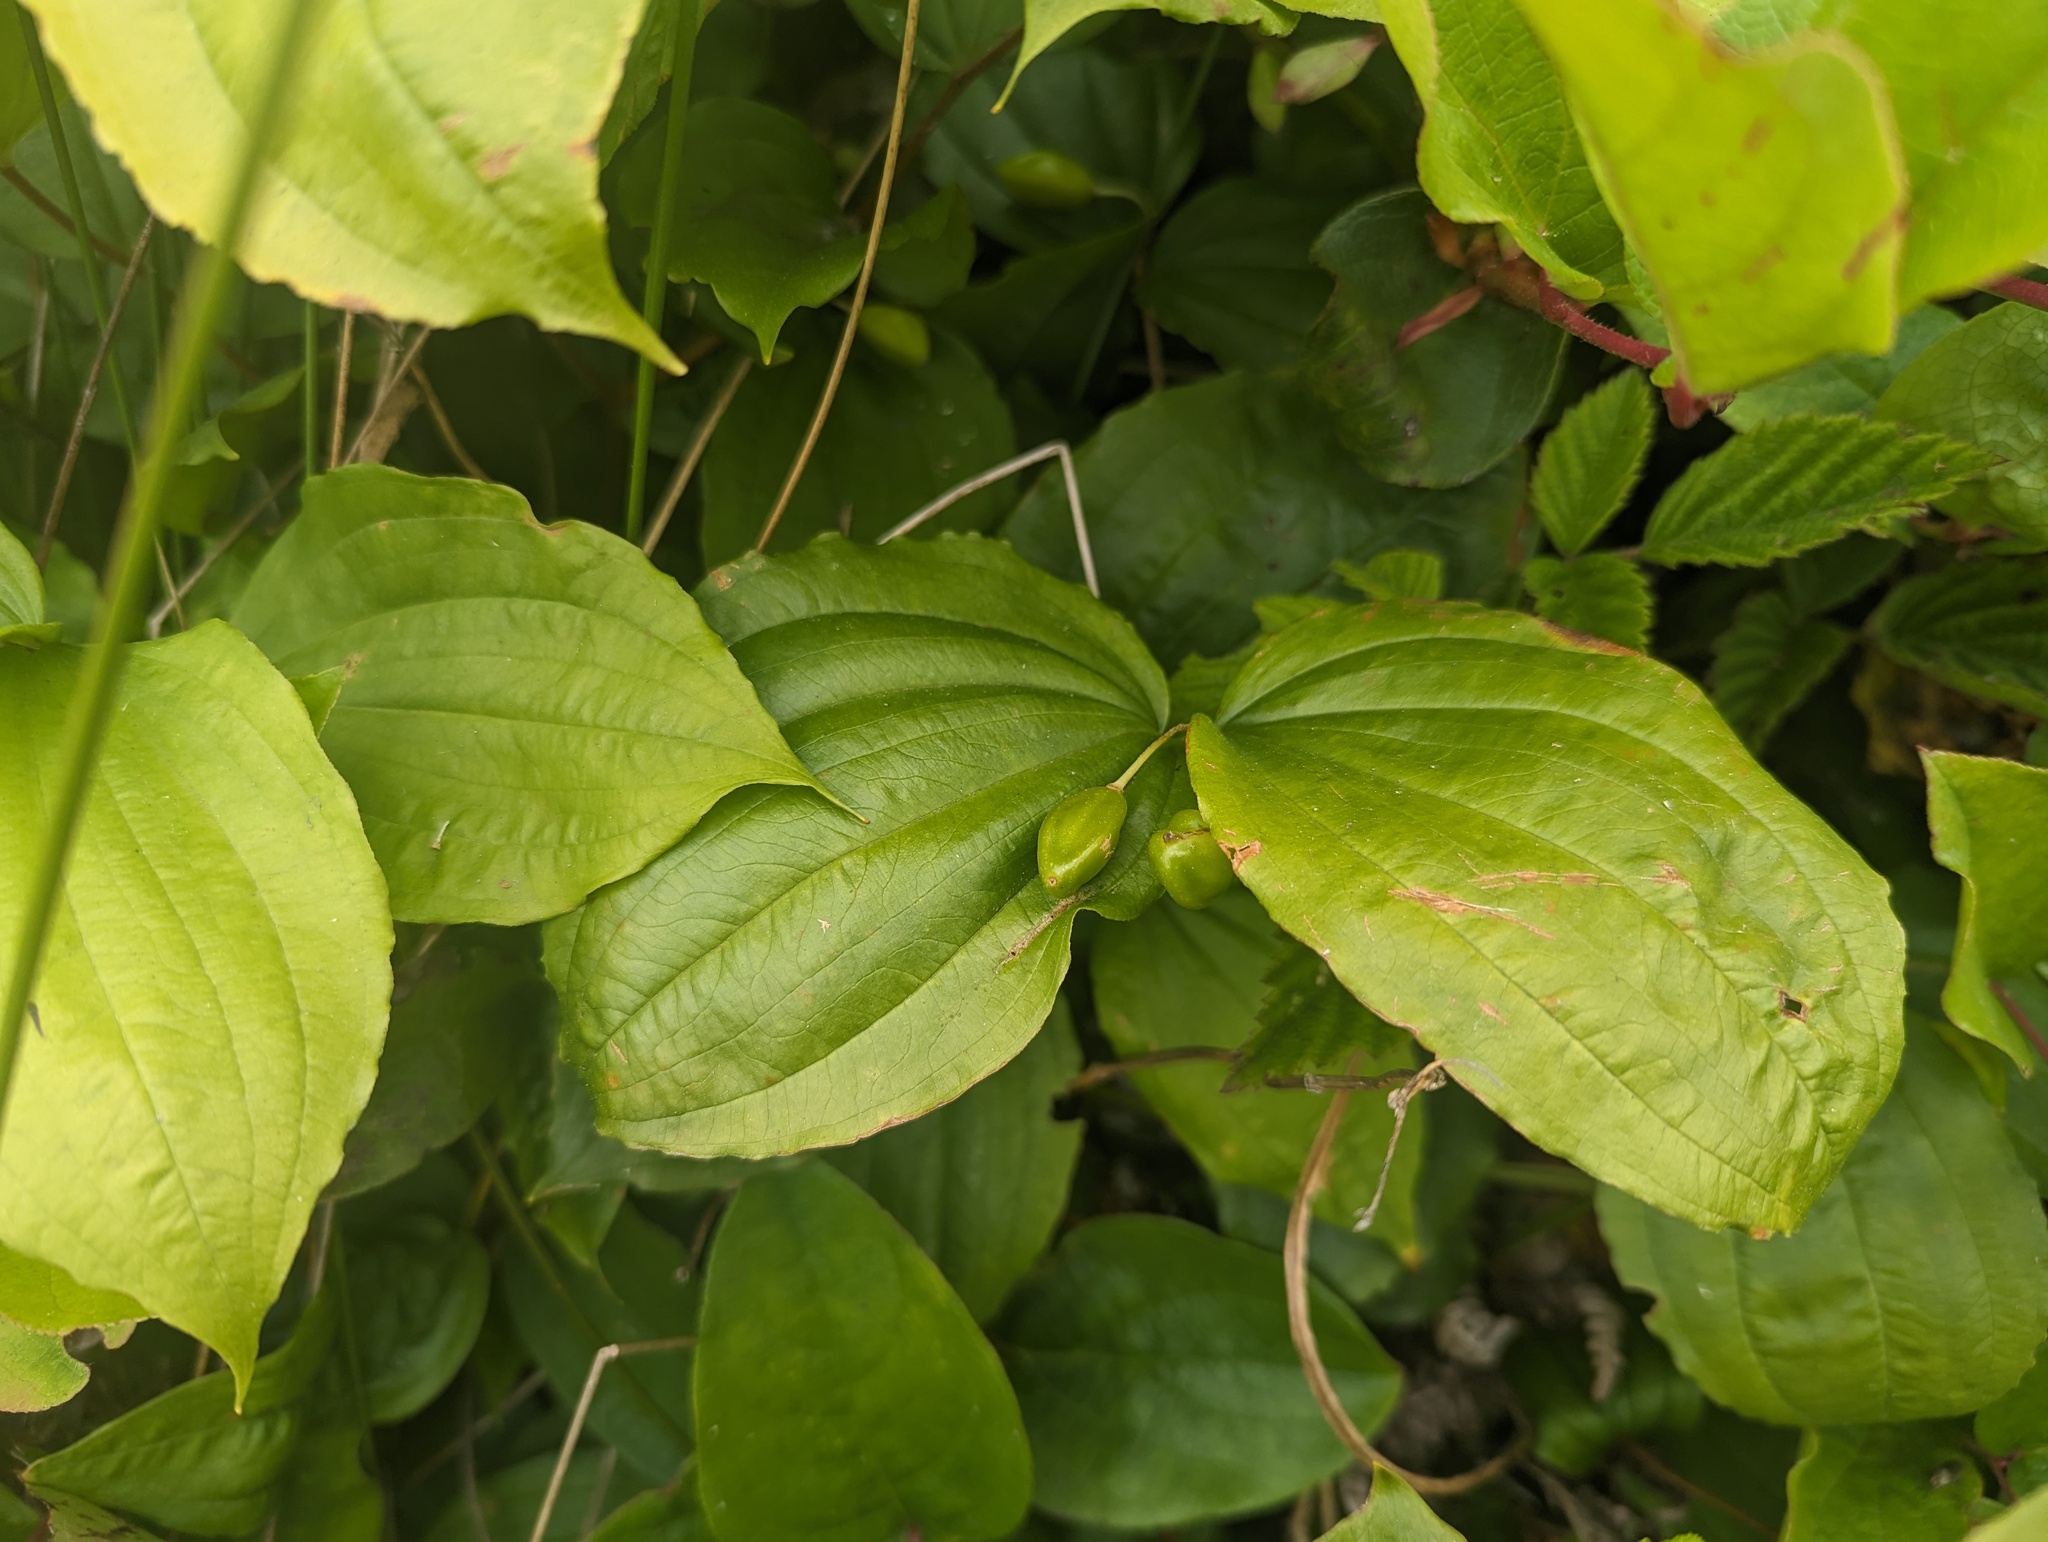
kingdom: Plantae
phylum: Tracheophyta
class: Liliopsida
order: Liliales
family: Liliaceae
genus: Prosartes
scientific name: Prosartes smithii
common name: Fairy-lantern
